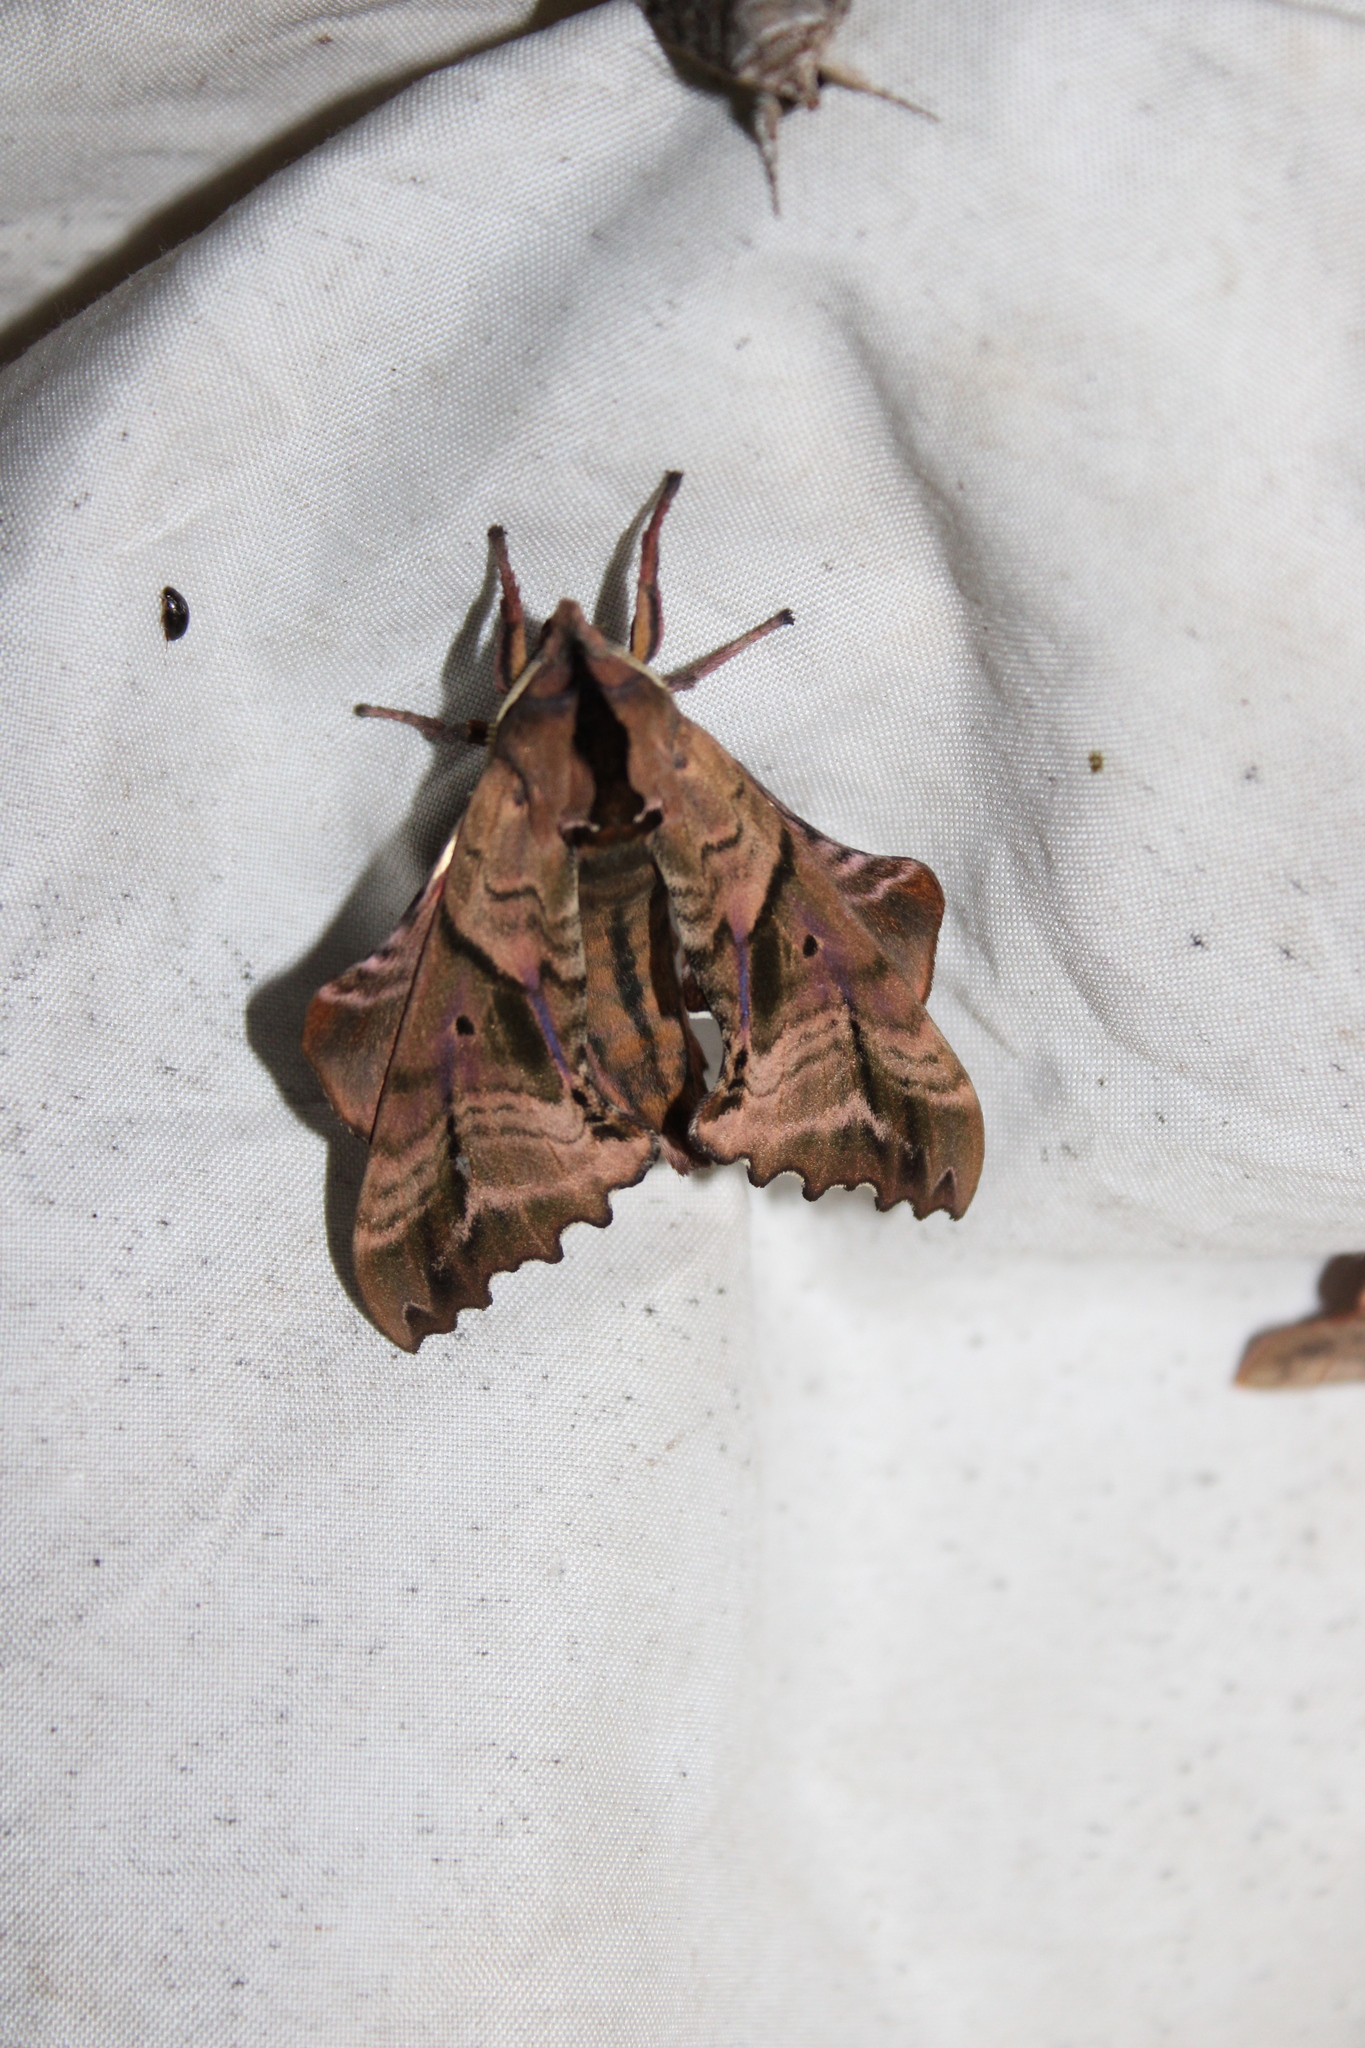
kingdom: Animalia
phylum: Arthropoda
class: Insecta
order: Lepidoptera
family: Sphingidae
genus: Paonias
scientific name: Paonias excaecata
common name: Blind-eyed sphinx
